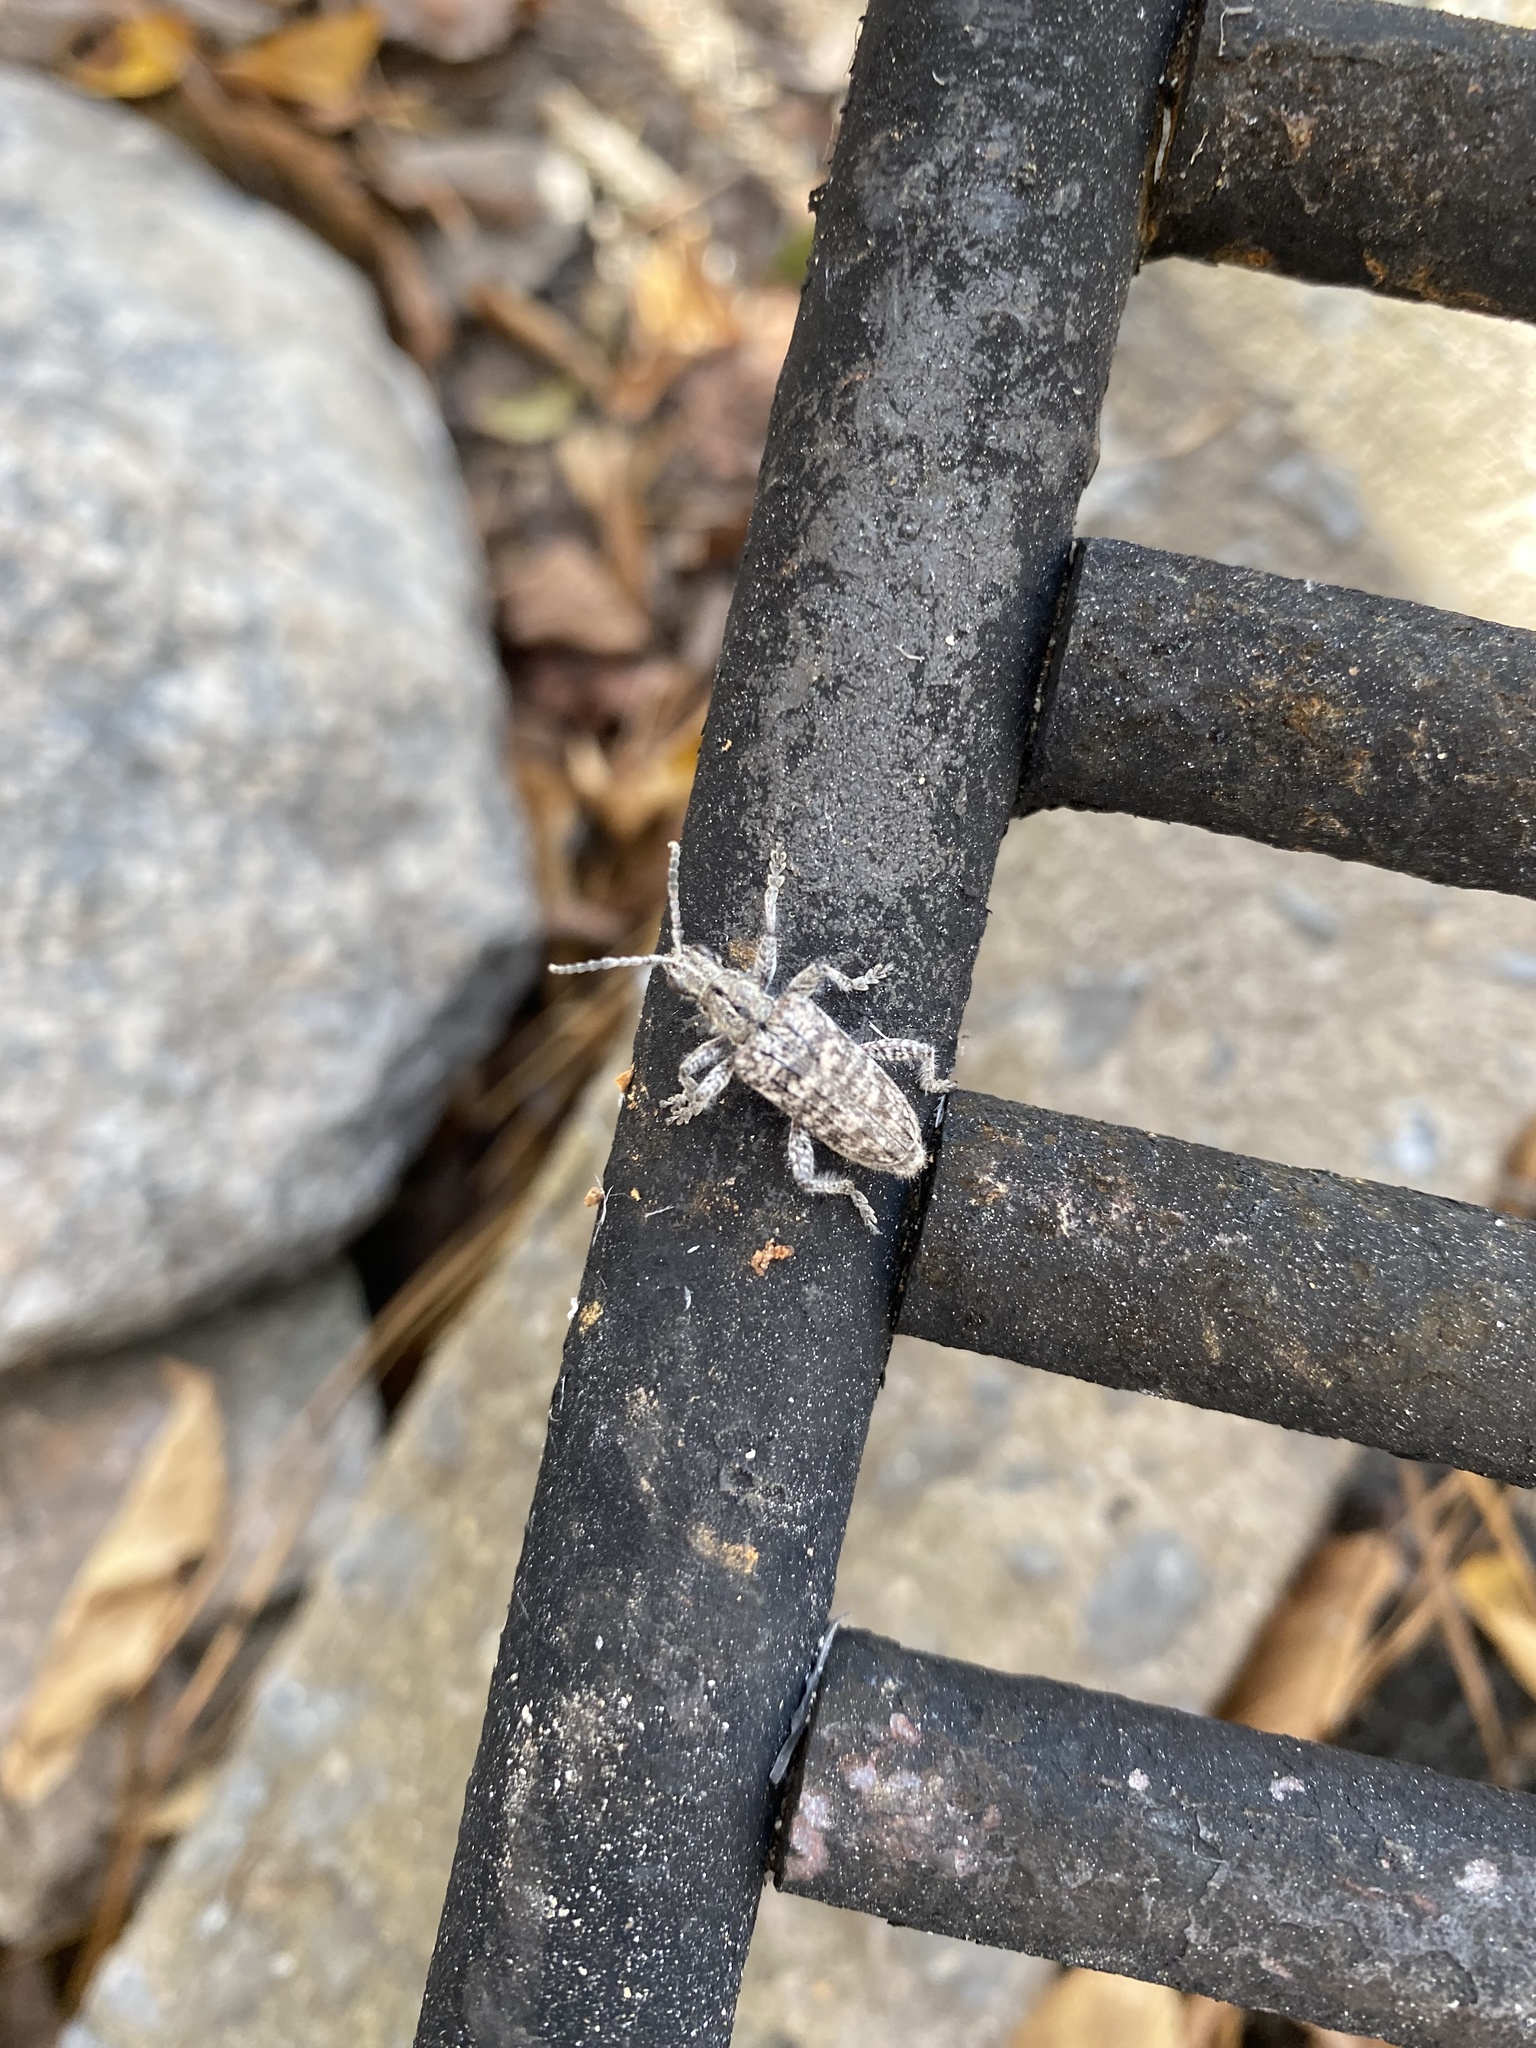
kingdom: Animalia
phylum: Arthropoda
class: Insecta
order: Coleoptera
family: Cerambycidae
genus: Rhagium
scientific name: Rhagium inquisitor
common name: Ribbed pine borer
